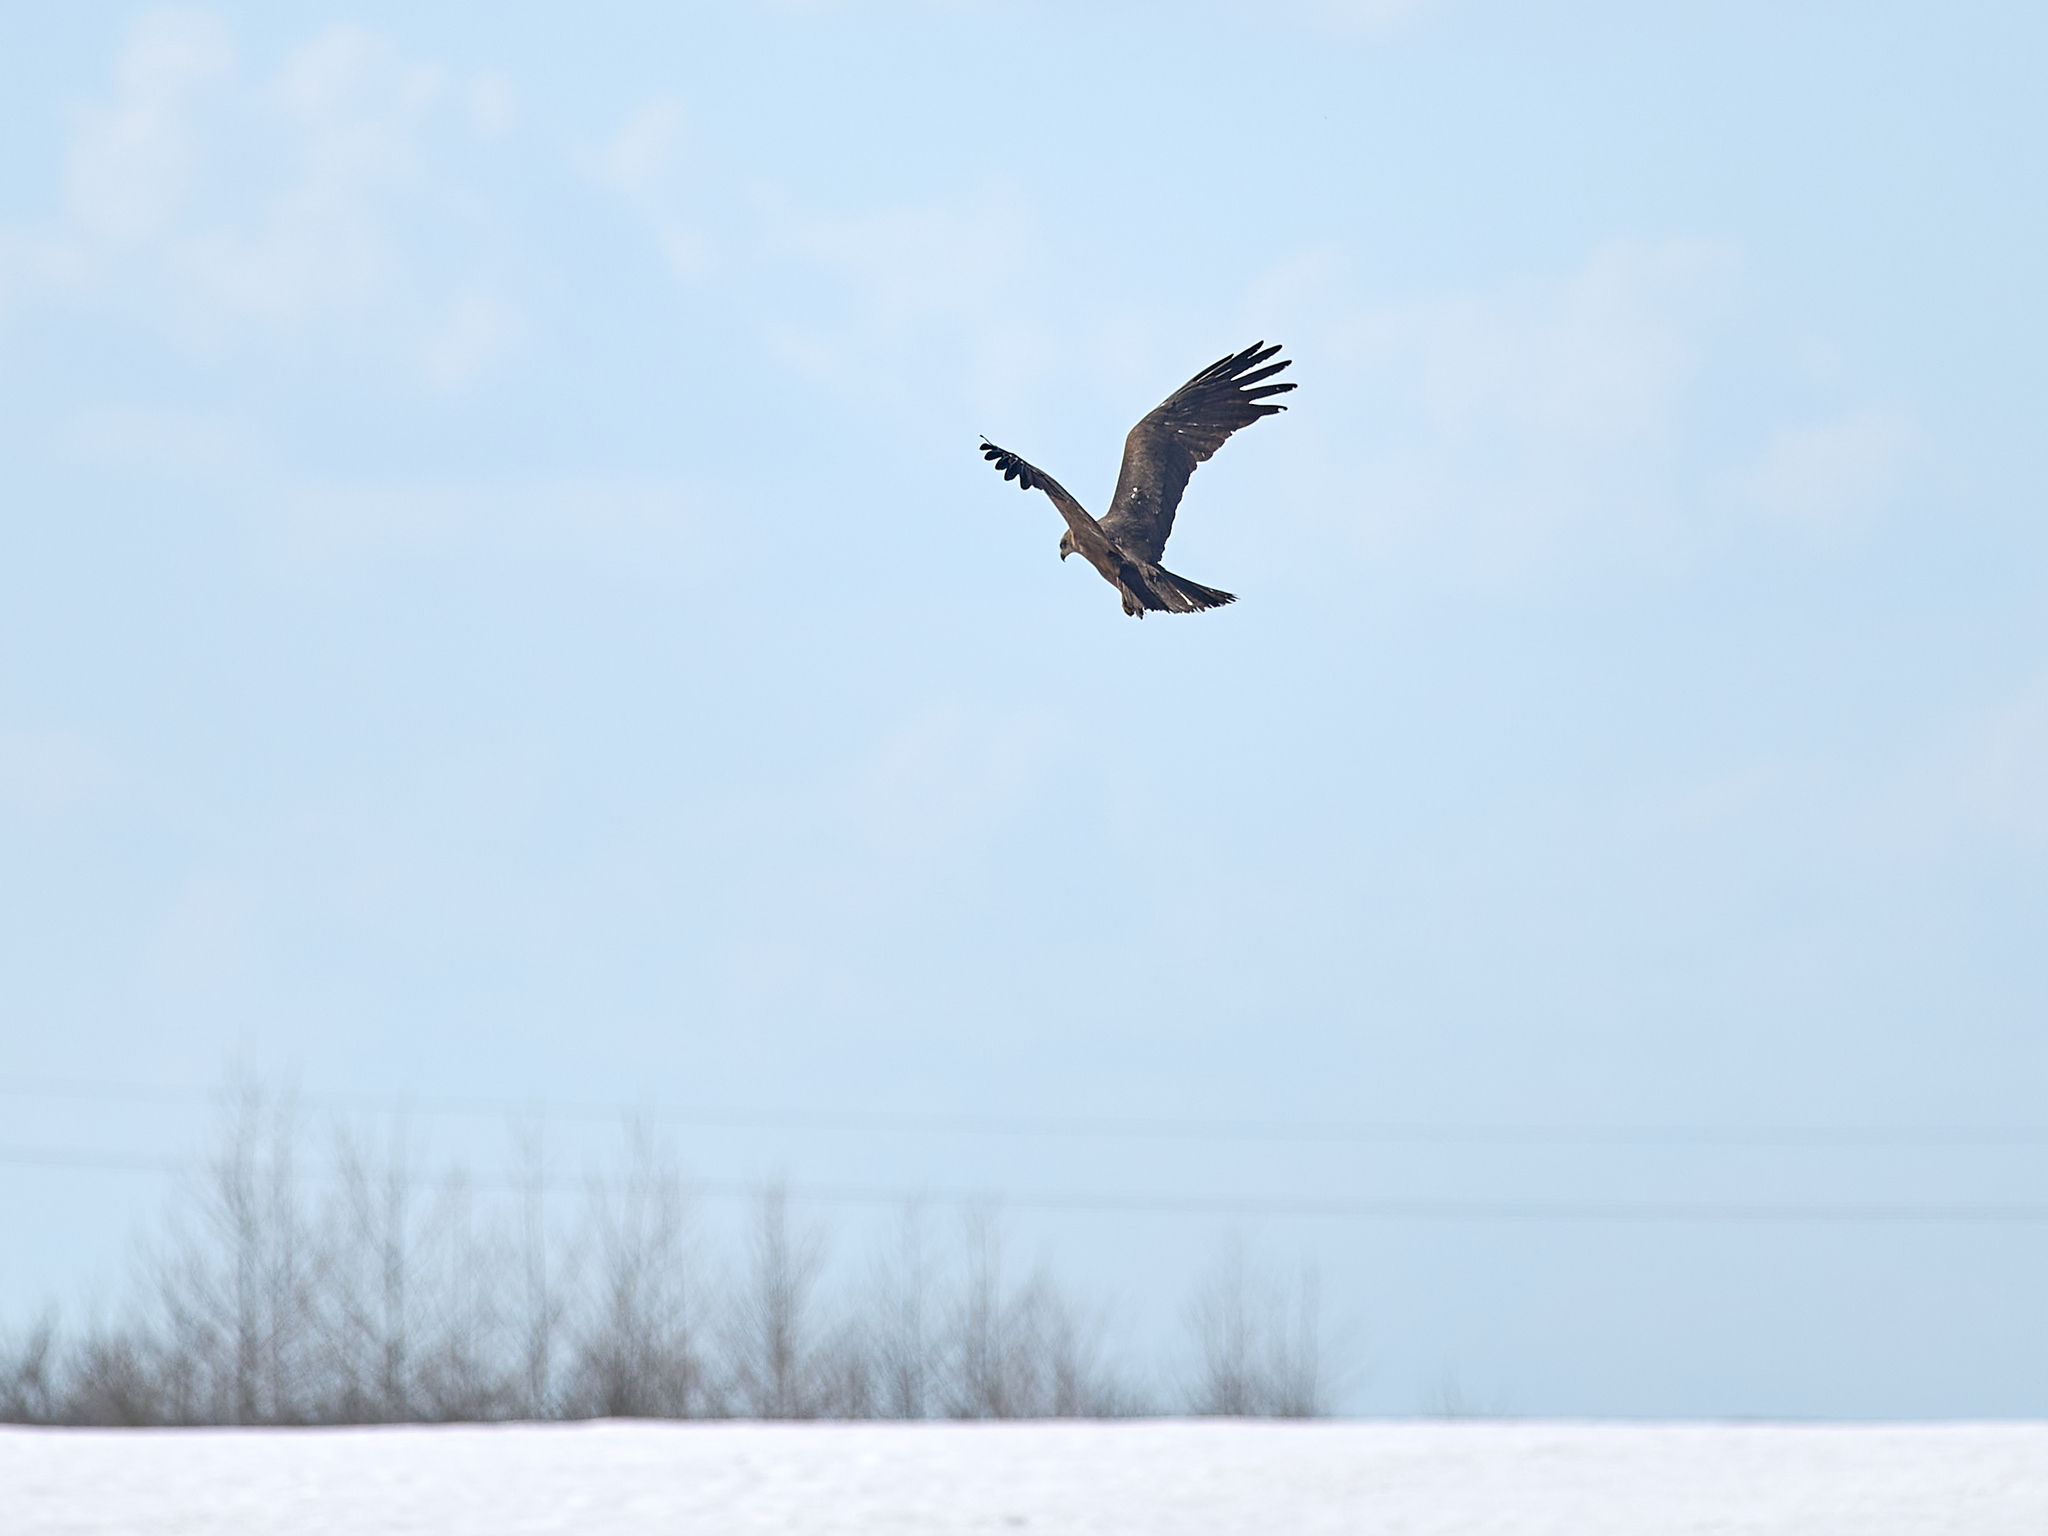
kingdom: Animalia
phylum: Chordata
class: Aves
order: Accipitriformes
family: Accipitridae
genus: Milvus
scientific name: Milvus migrans
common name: Black kite
